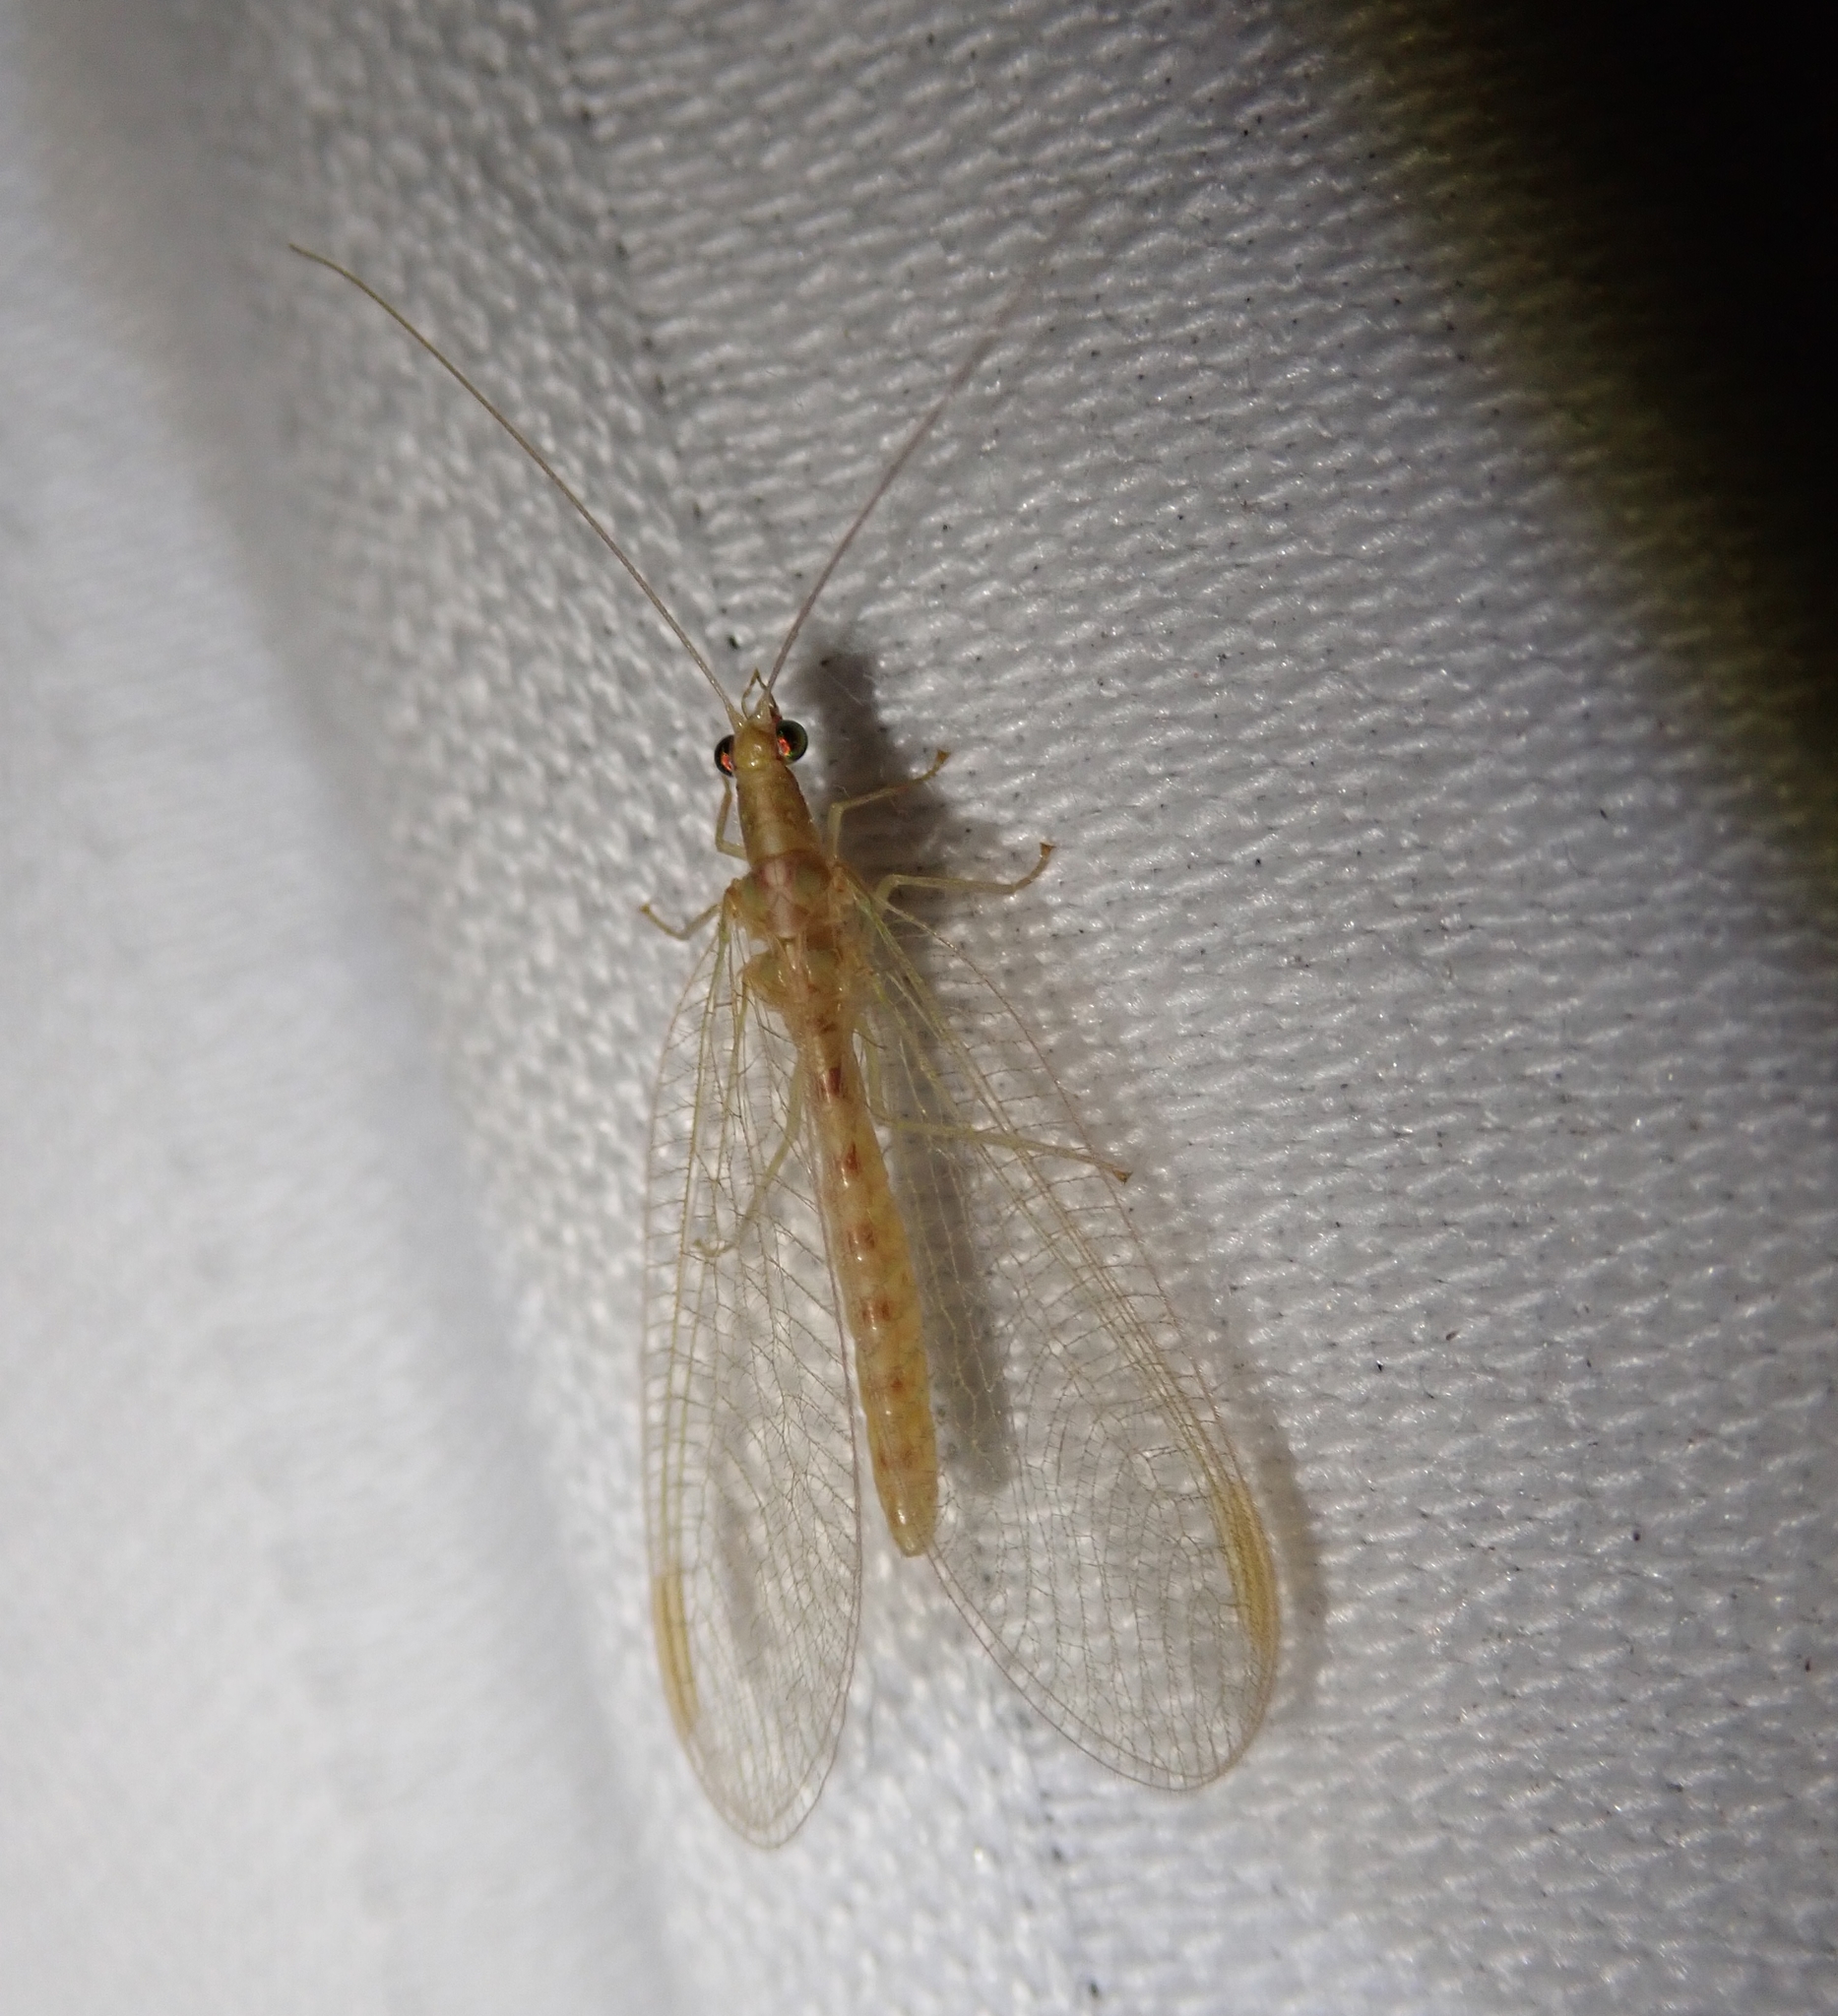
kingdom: Animalia
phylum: Arthropoda
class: Insecta
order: Neuroptera
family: Chrysopidae
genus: Chrysoperla
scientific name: Chrysoperla
